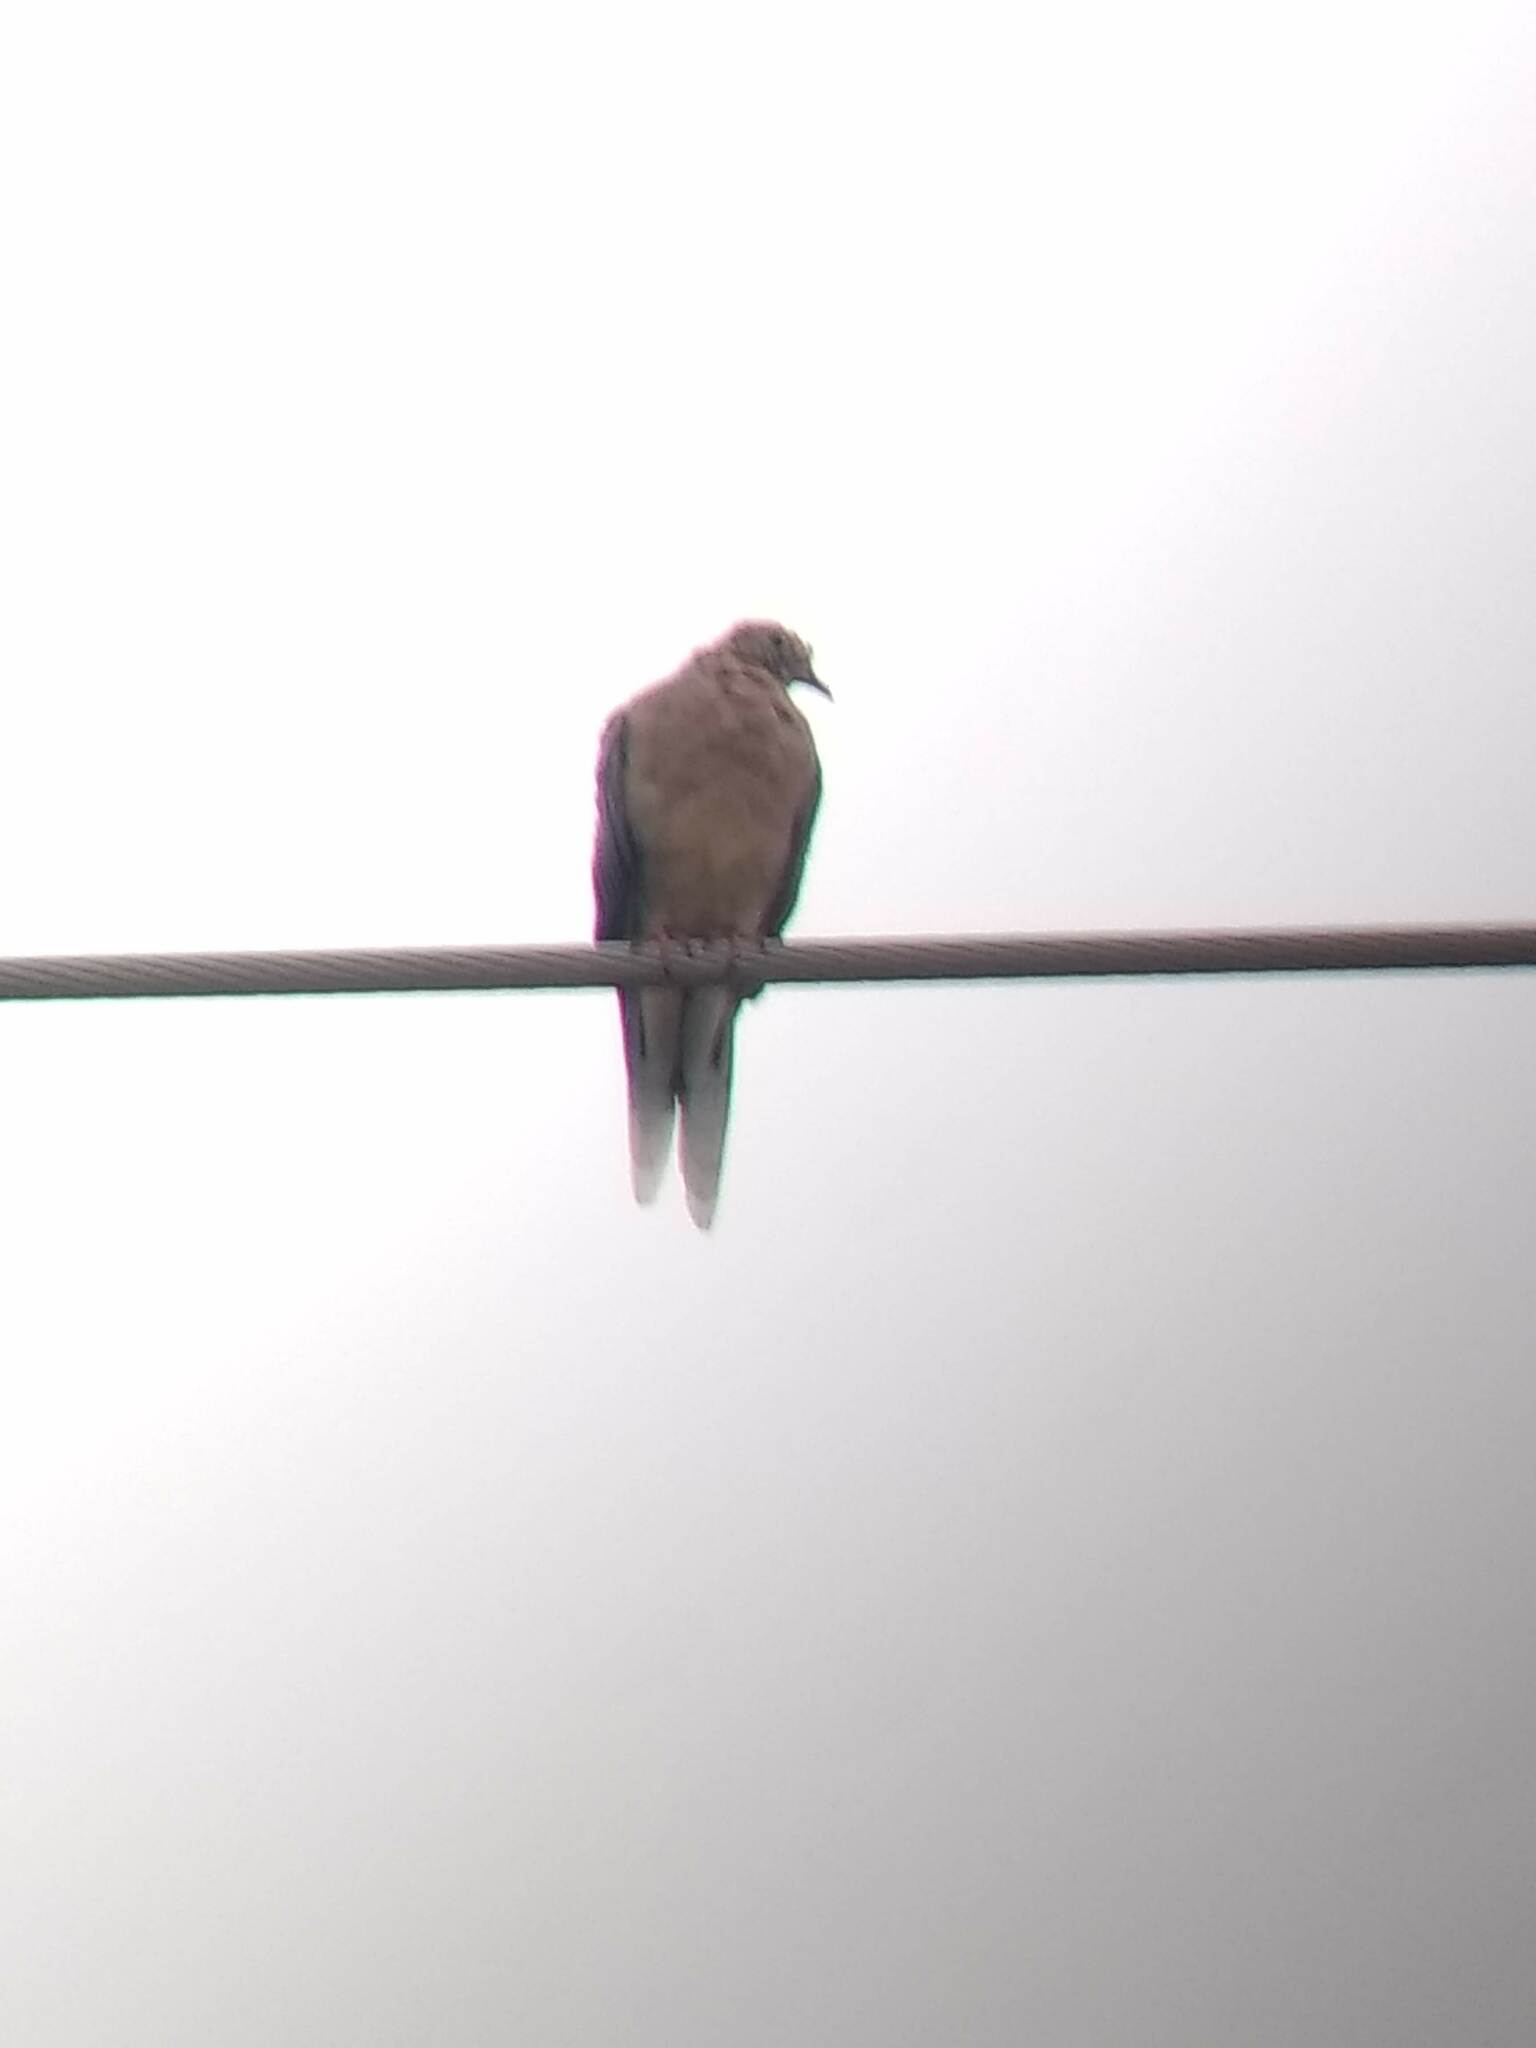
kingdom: Animalia
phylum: Chordata
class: Aves
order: Columbiformes
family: Columbidae
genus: Zenaida
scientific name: Zenaida macroura
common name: Mourning dove
